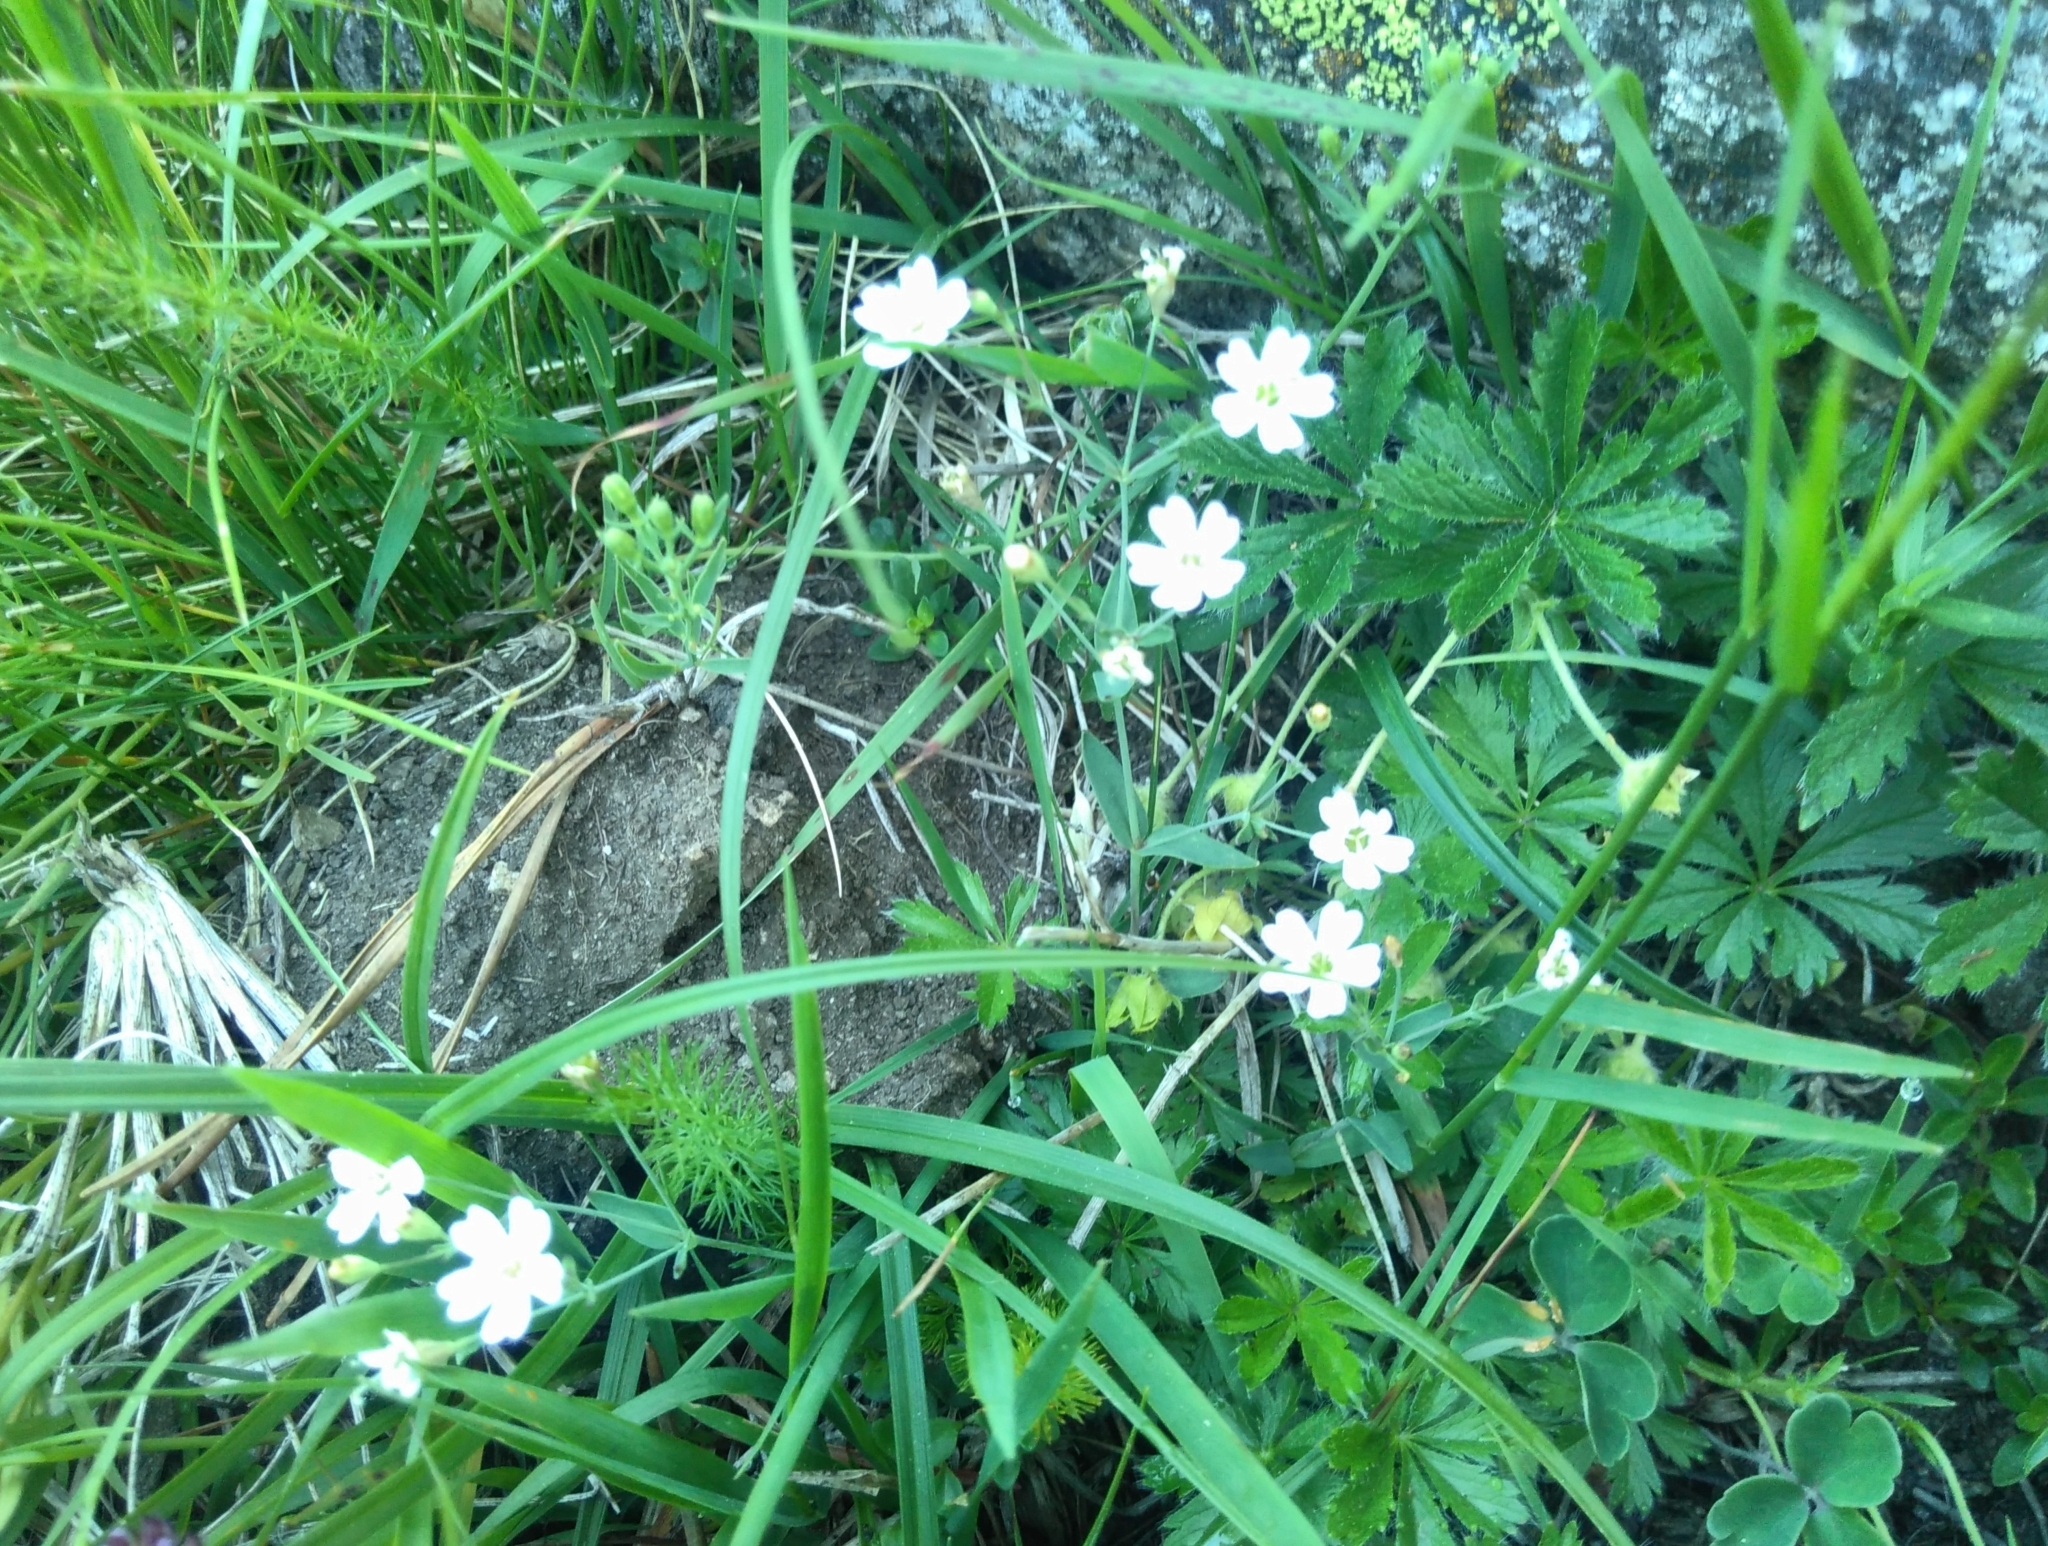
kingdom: Plantae
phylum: Tracheophyta
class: Magnoliopsida
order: Caryophyllales
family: Caryophyllaceae
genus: Atocion
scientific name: Atocion rupestre
